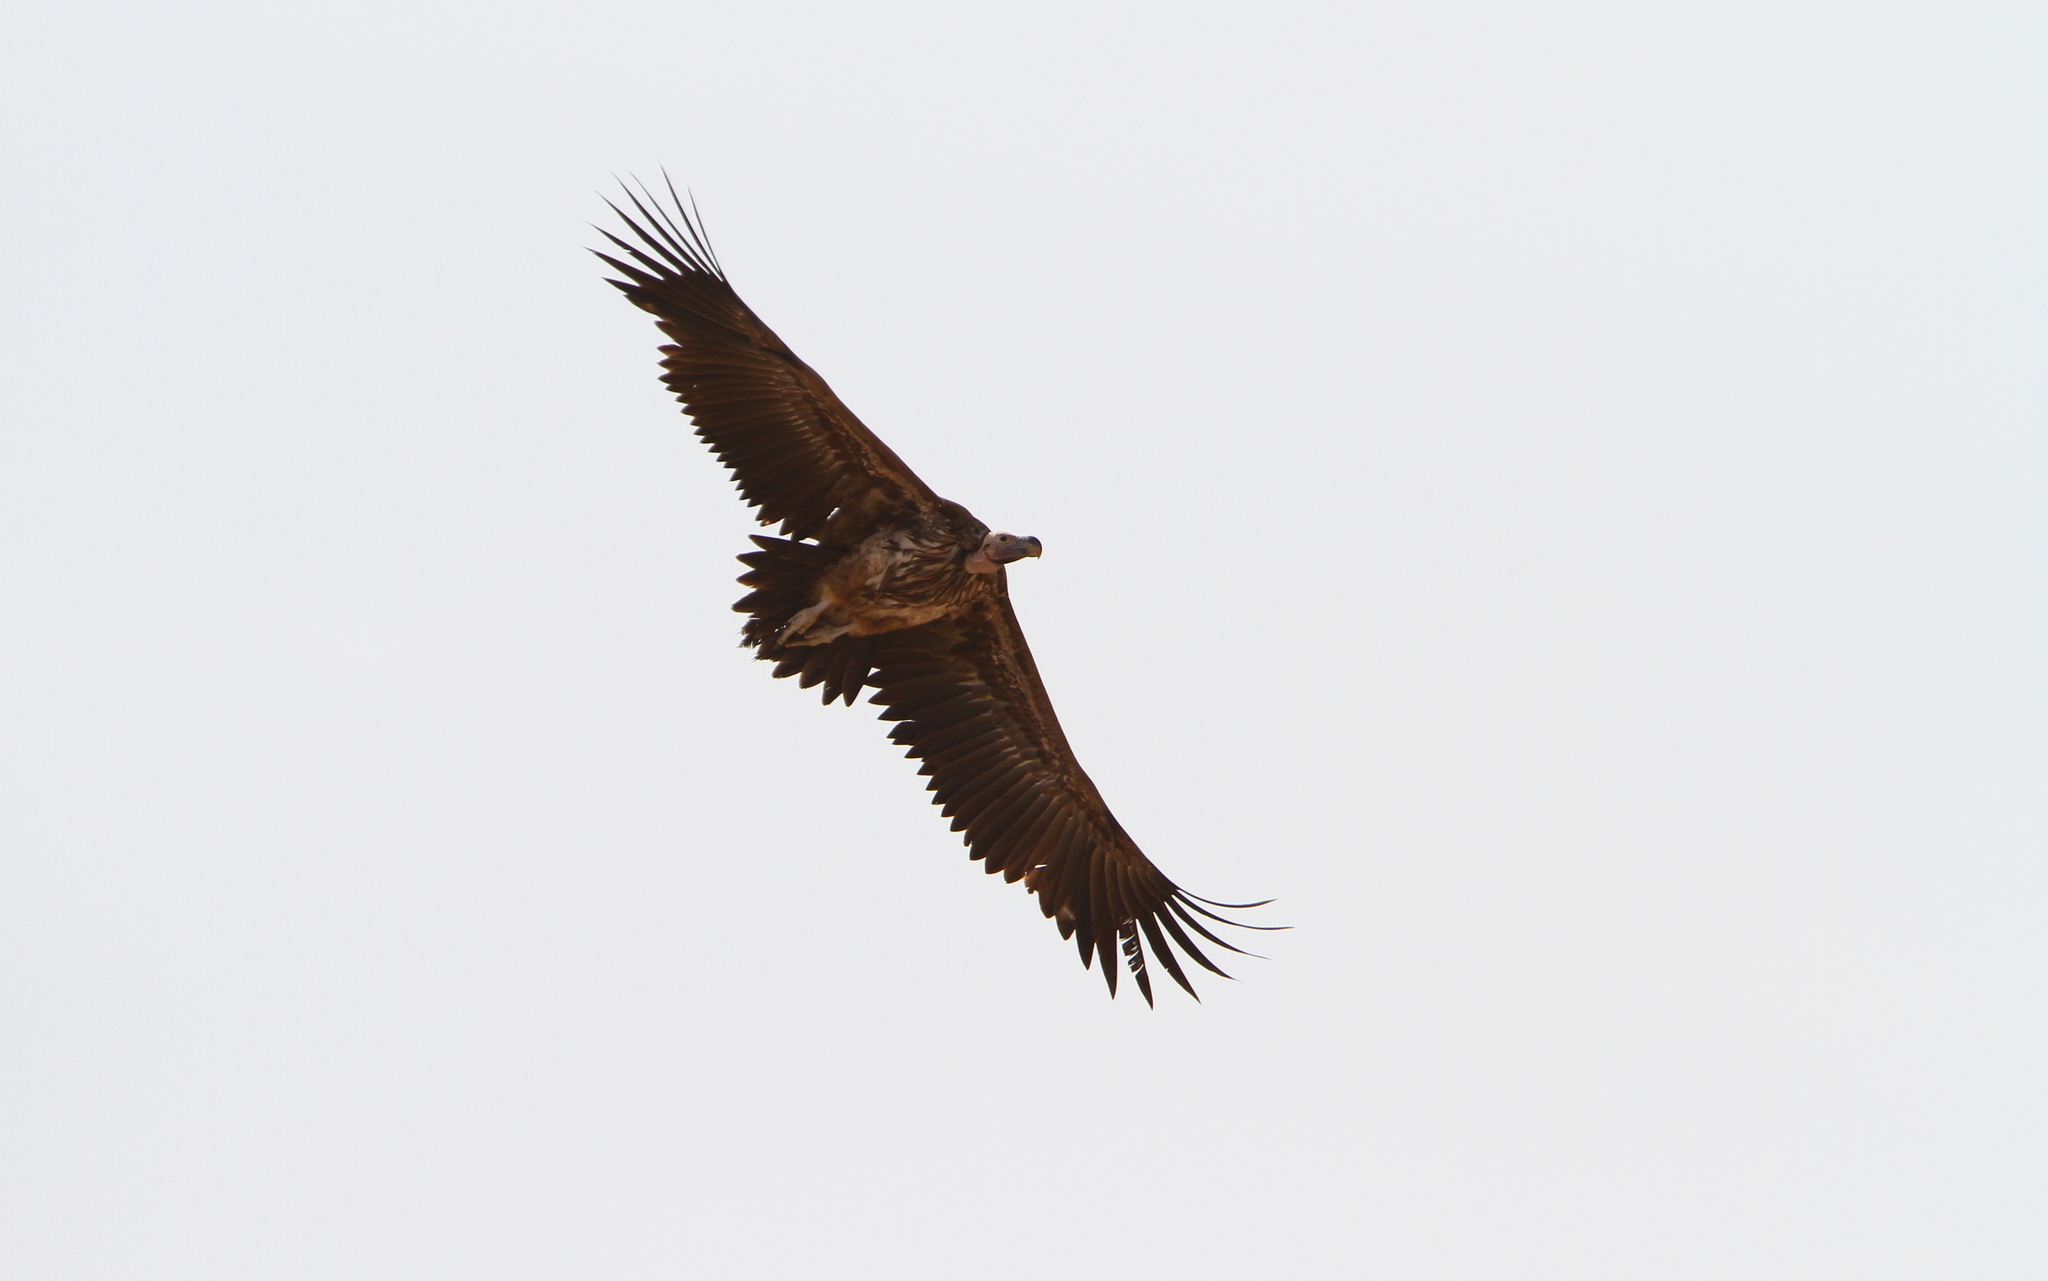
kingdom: Animalia
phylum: Chordata
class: Aves
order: Accipitriformes
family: Accipitridae
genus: Torgos
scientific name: Torgos tracheliotos
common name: Lappet-faced vulture
